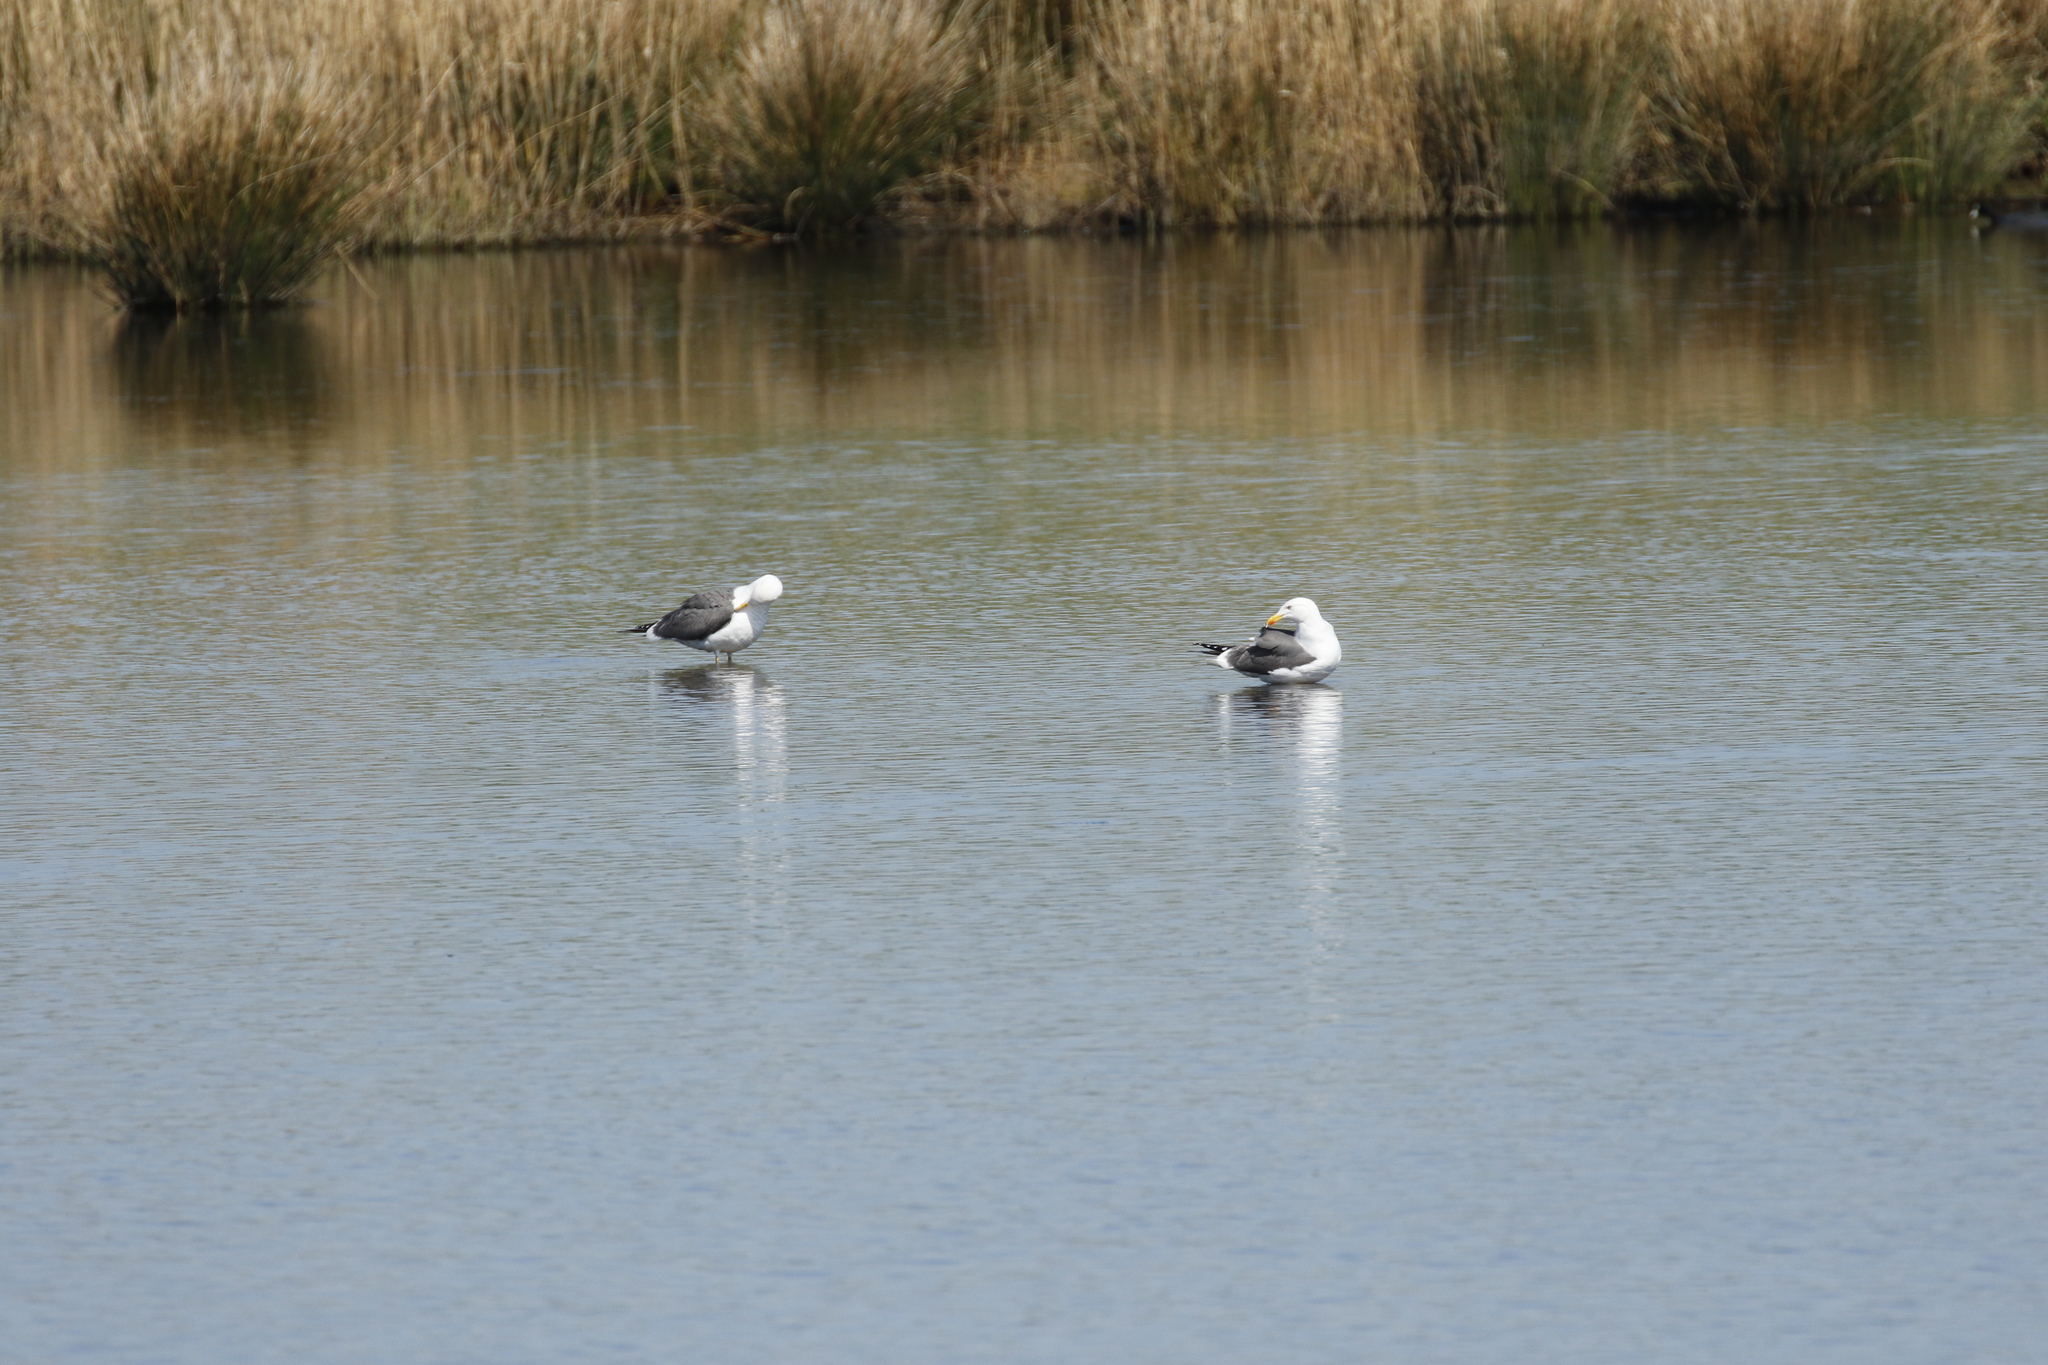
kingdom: Animalia
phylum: Chordata
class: Aves
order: Charadriiformes
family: Laridae
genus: Larus
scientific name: Larus marinus
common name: Great black-backed gull
